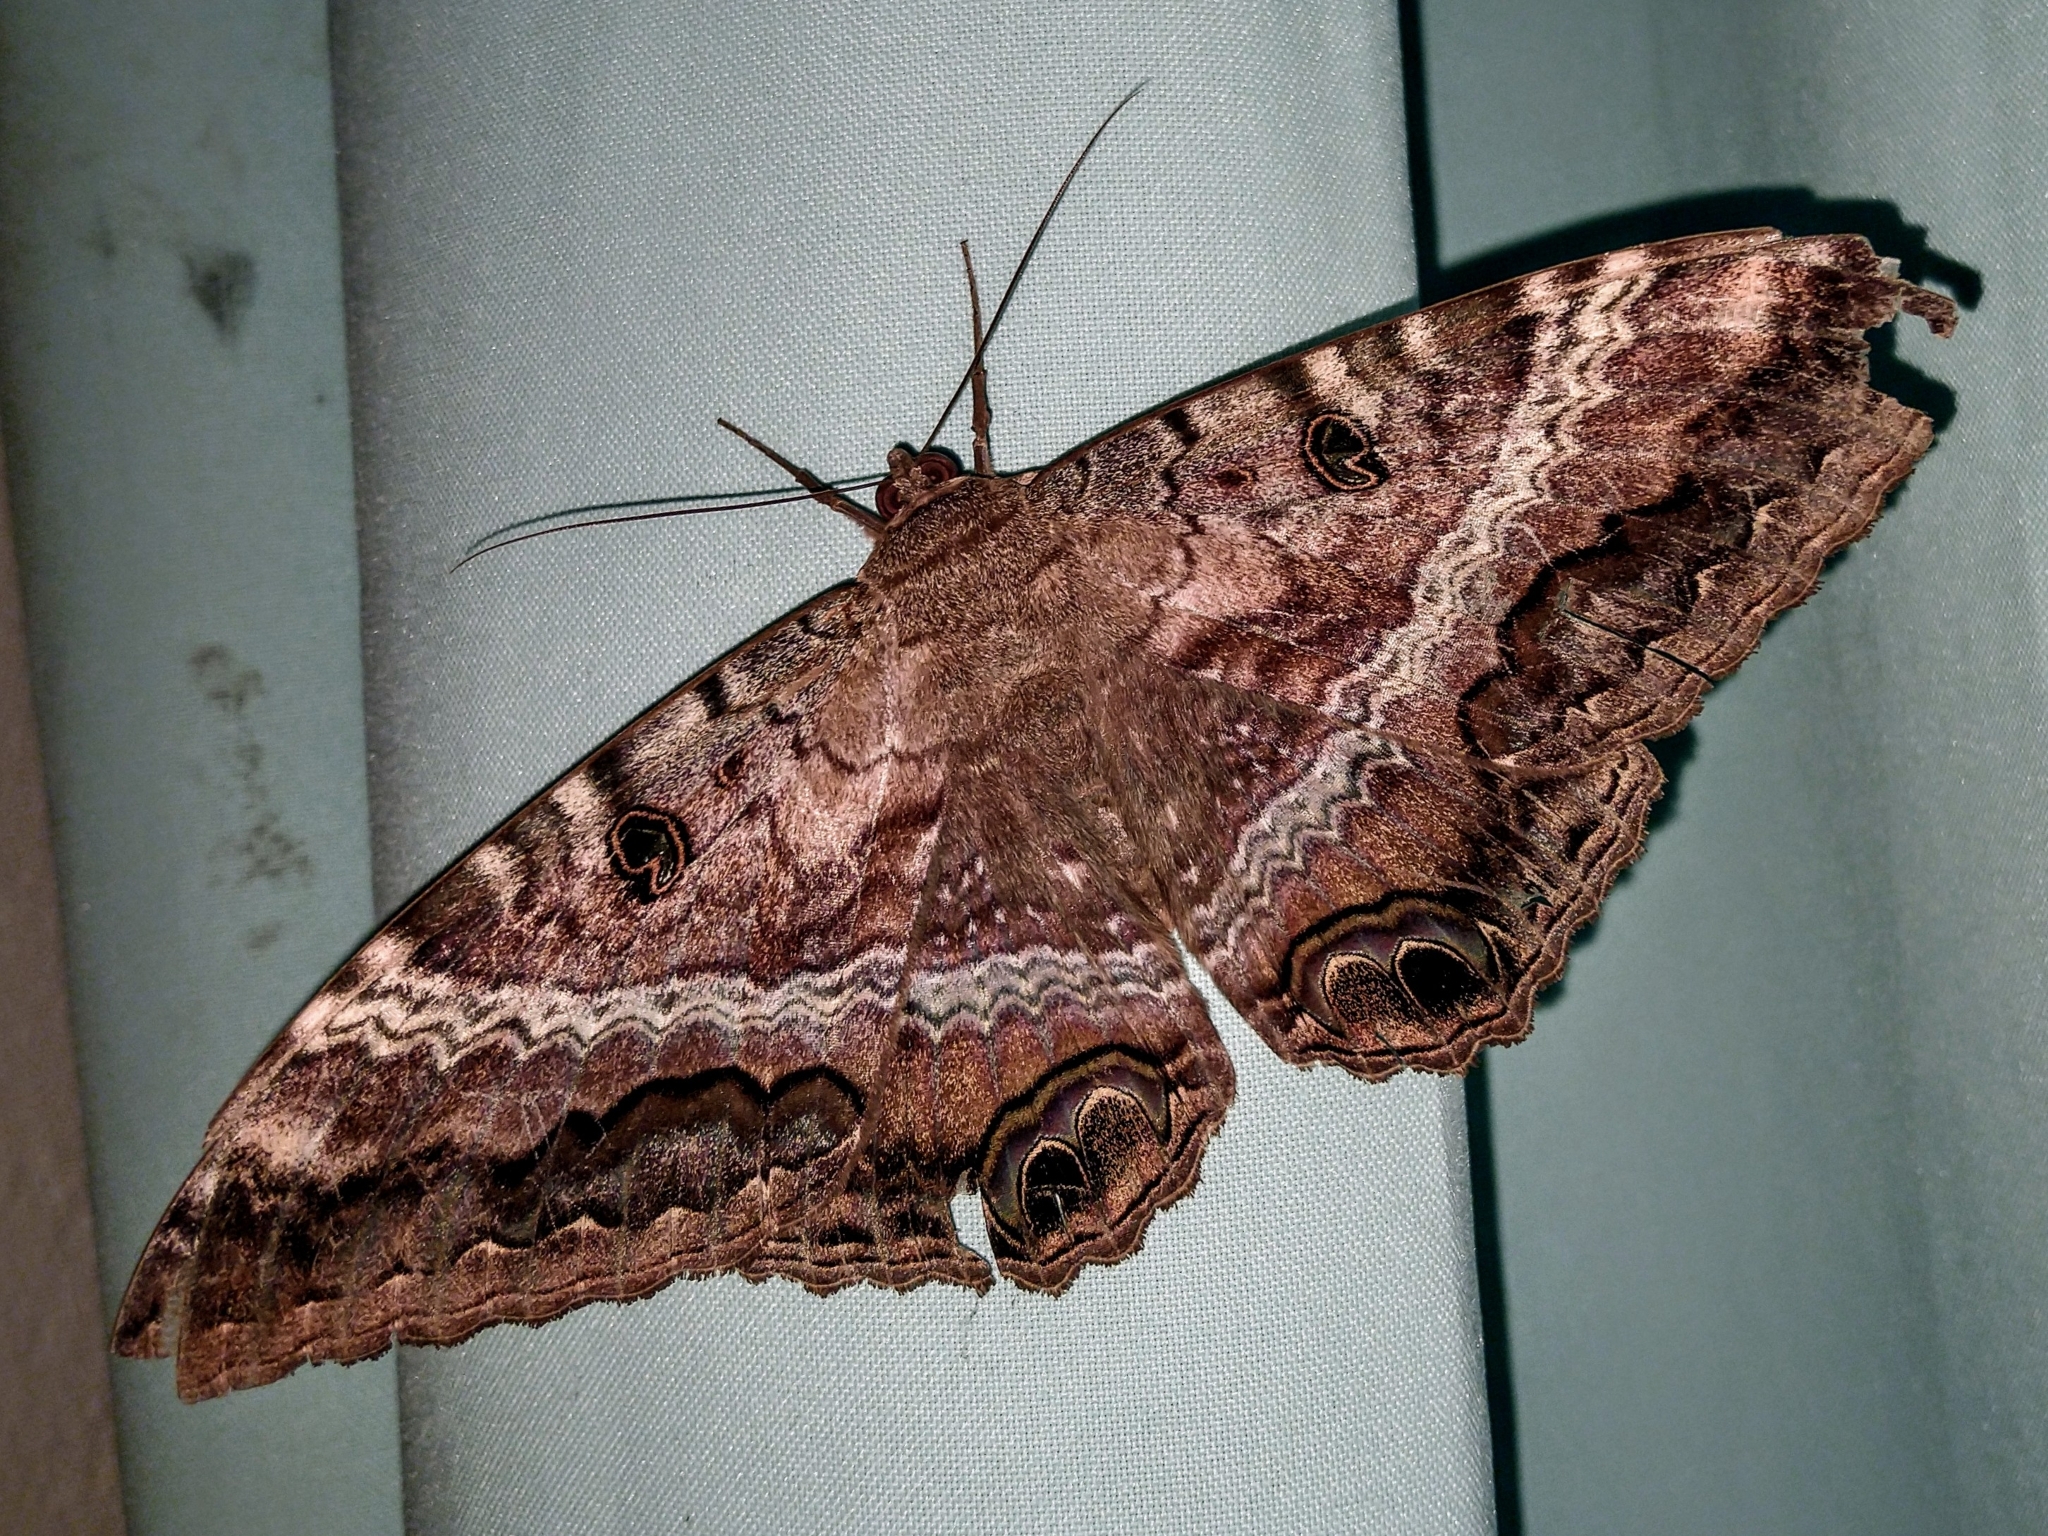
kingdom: Animalia
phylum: Arthropoda
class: Insecta
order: Lepidoptera
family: Erebidae
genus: Ascalapha
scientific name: Ascalapha odorata
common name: Black witch
